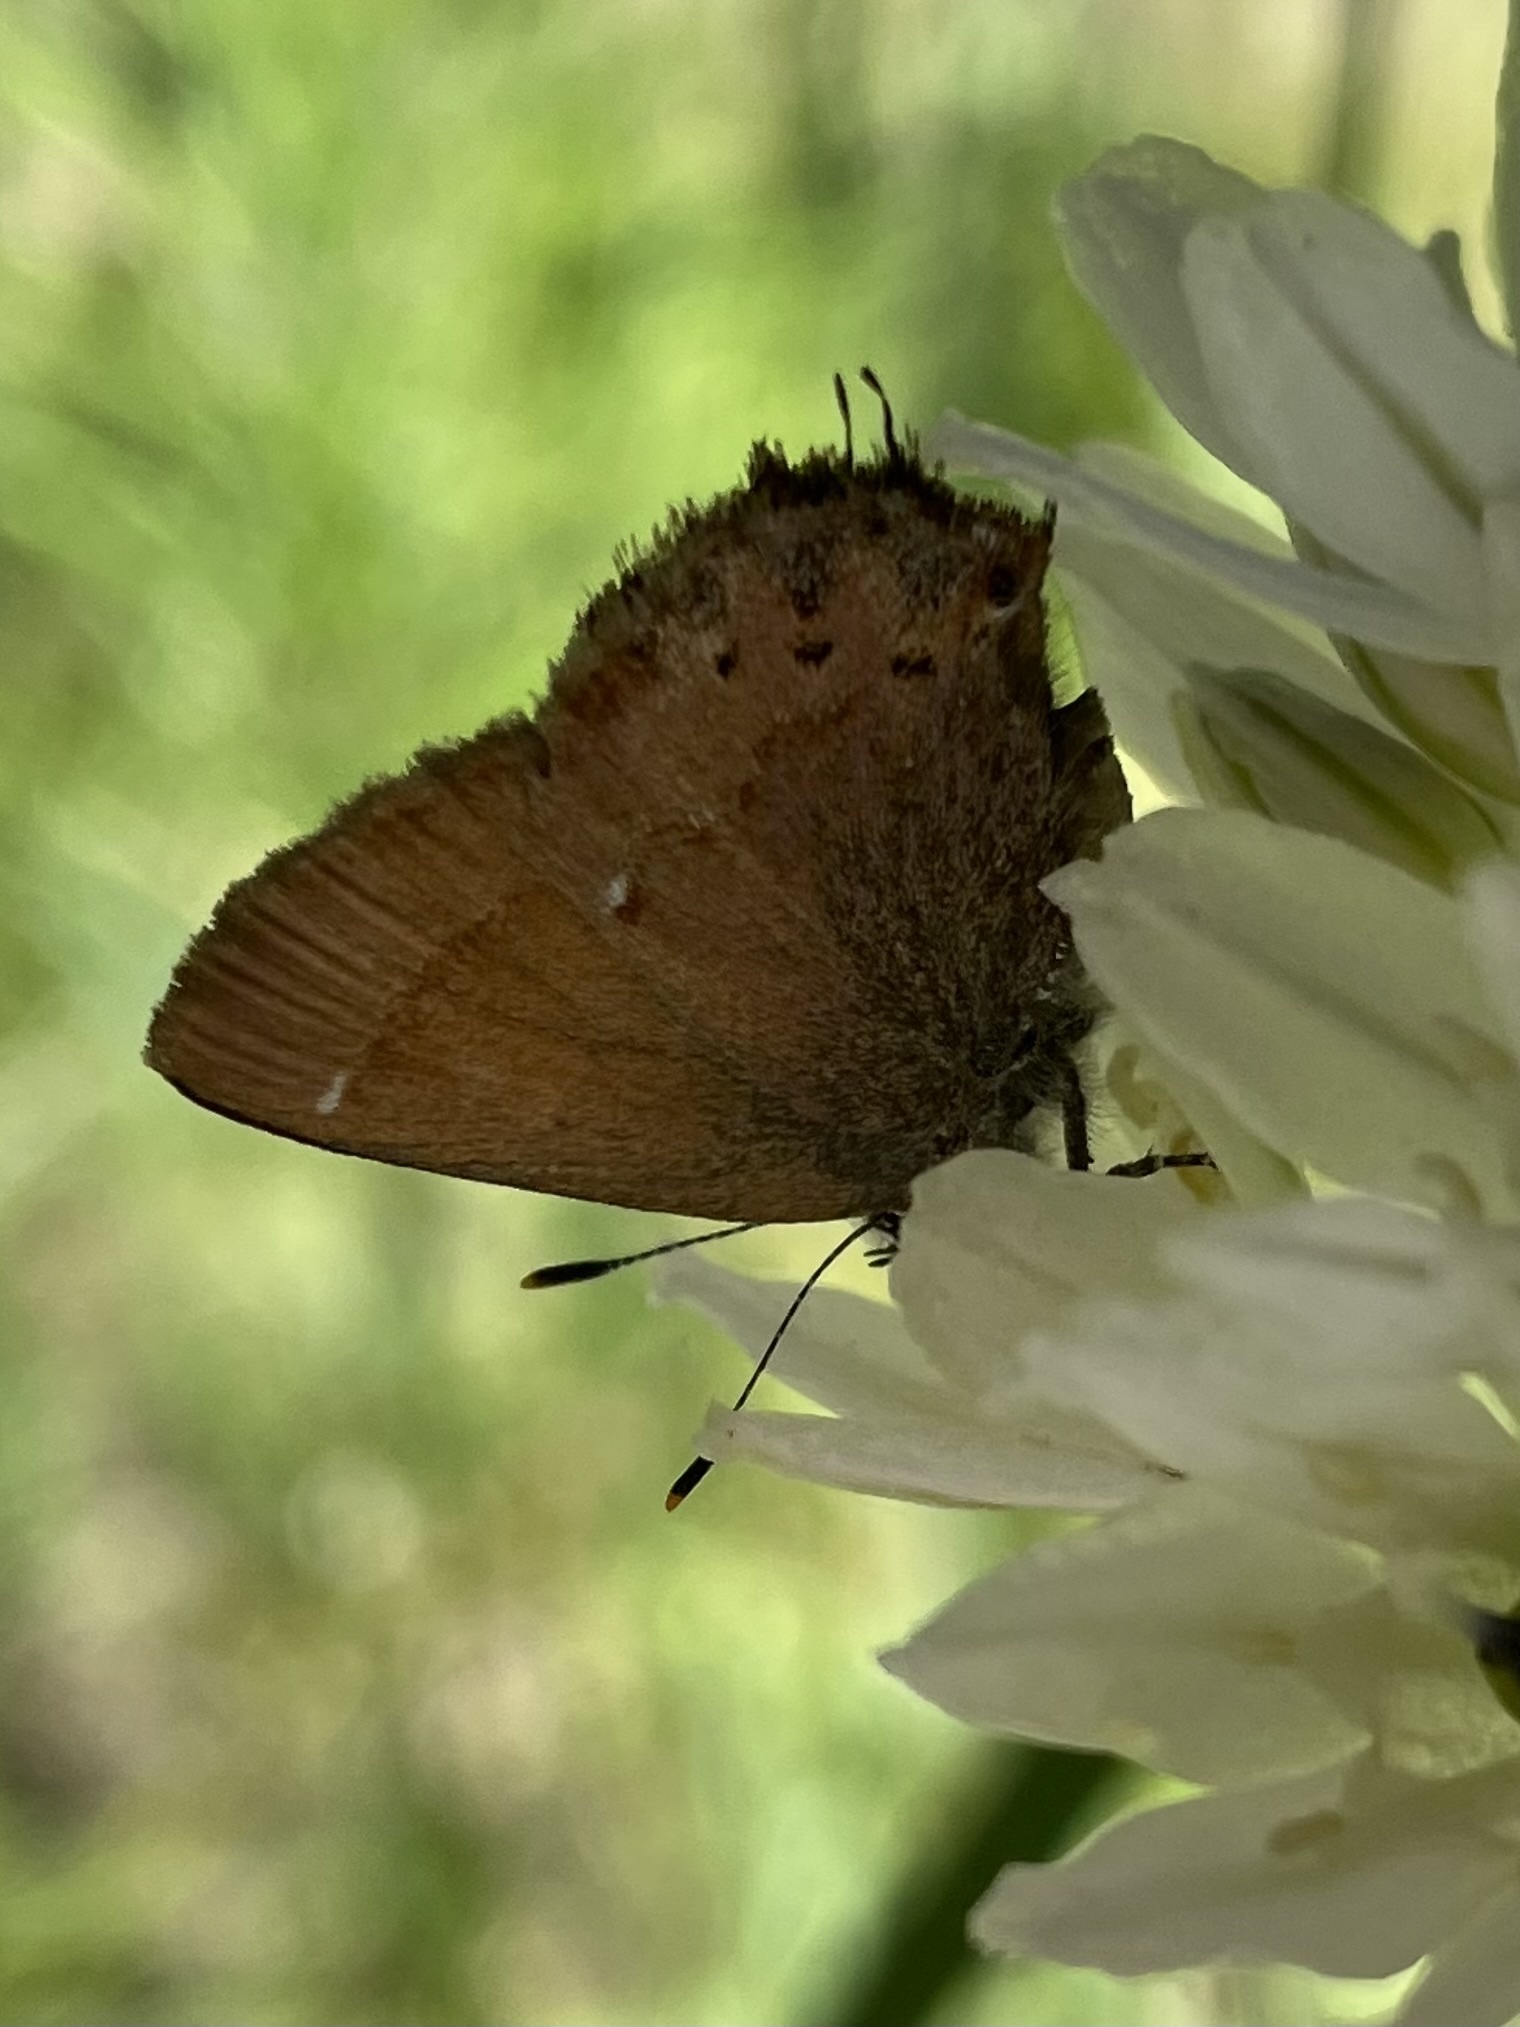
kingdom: Animalia
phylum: Arthropoda
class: Insecta
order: Lepidoptera
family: Lycaenidae
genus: Mitoura
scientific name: Mitoura gryneus
